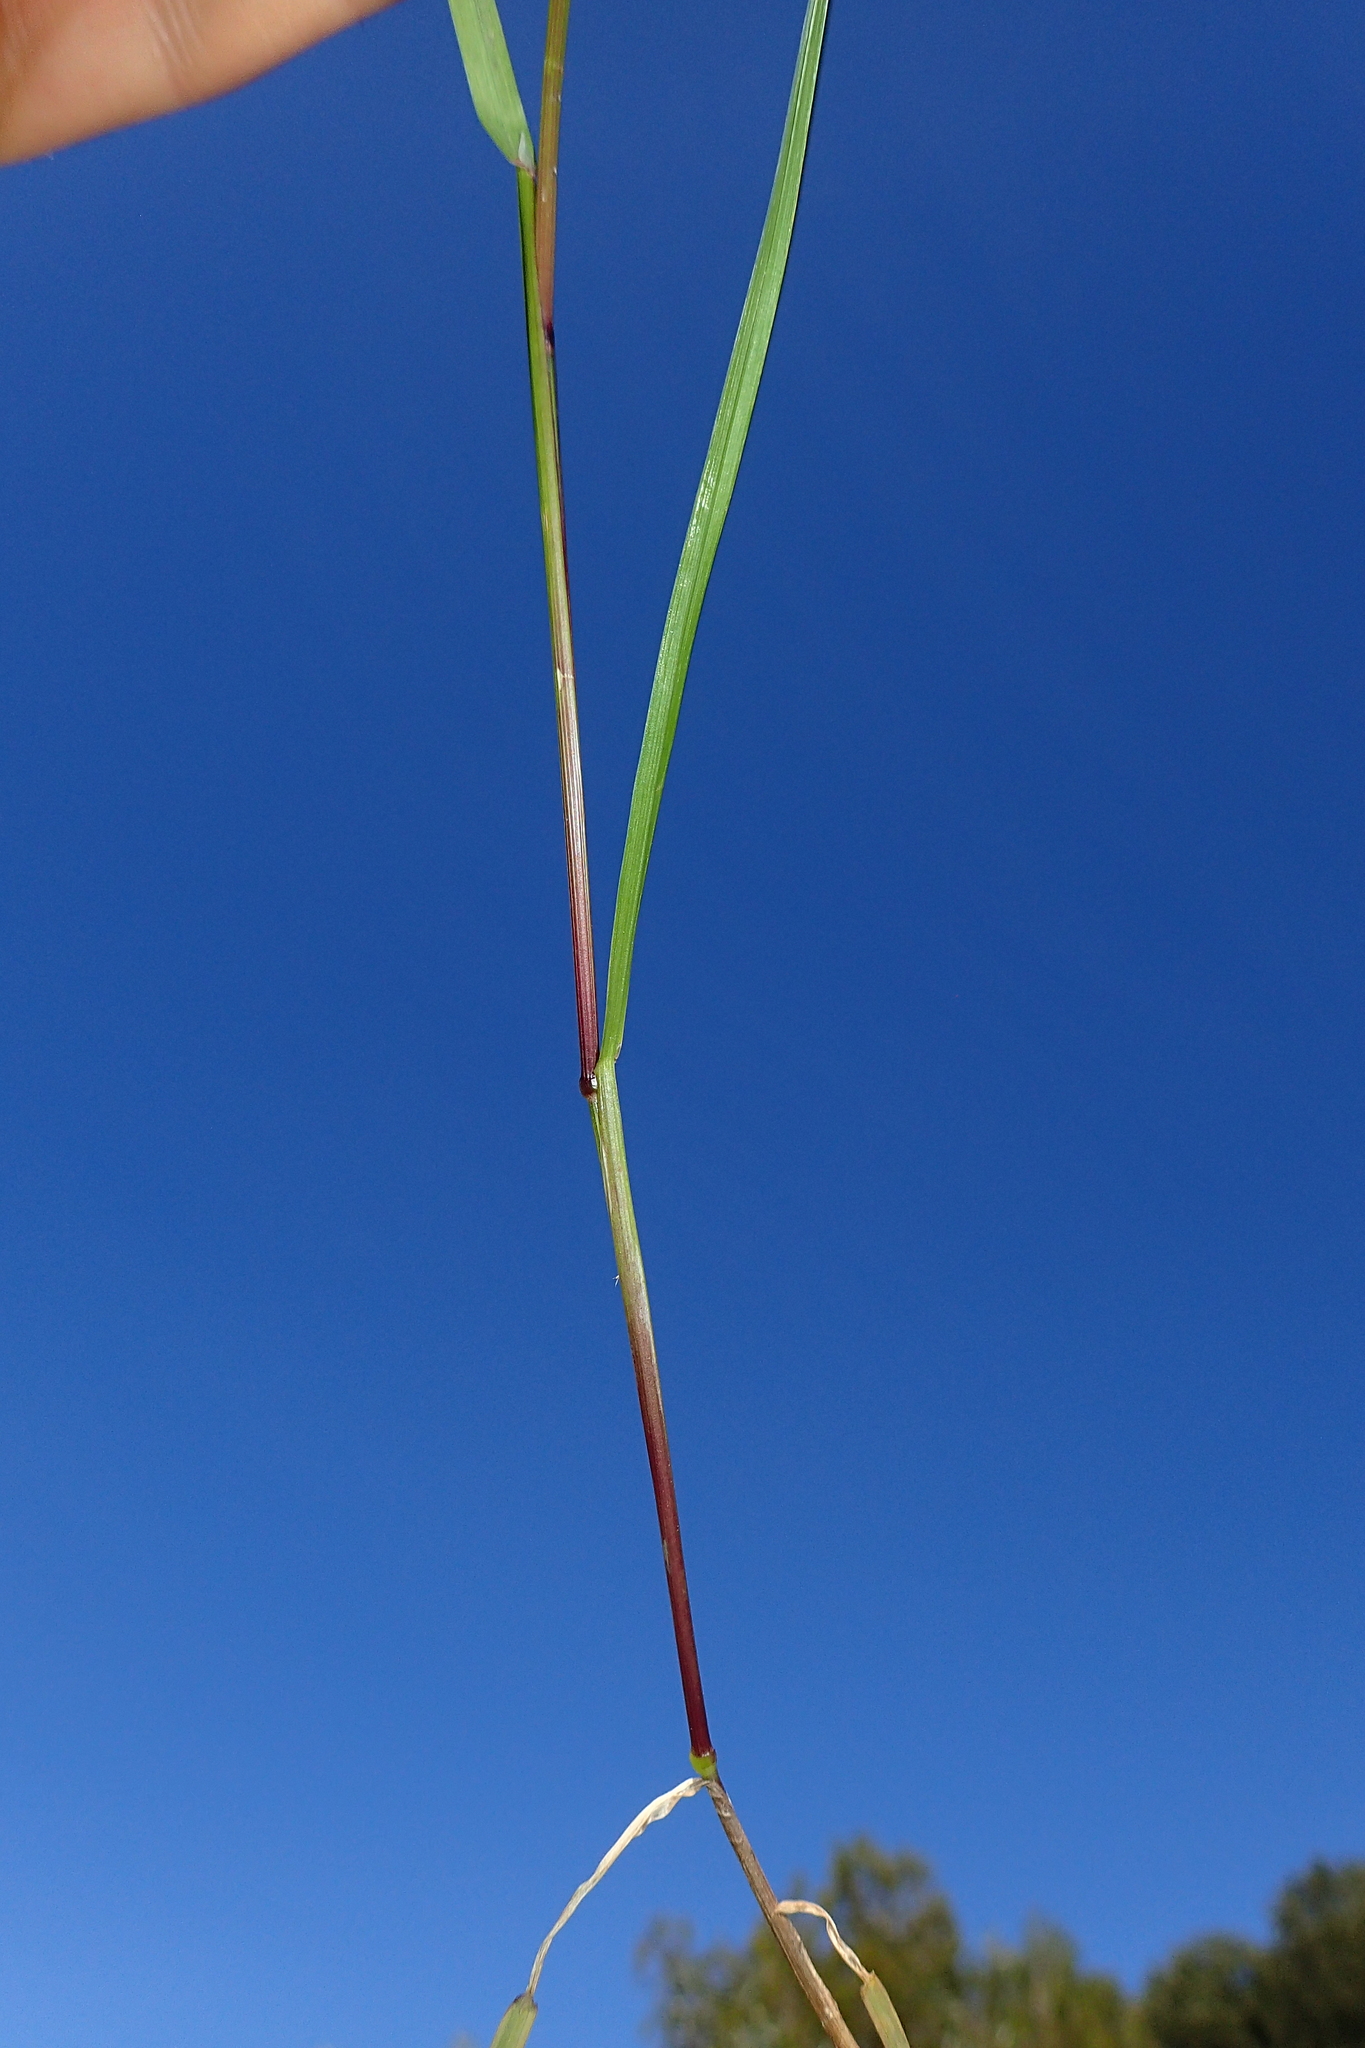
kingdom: Plantae
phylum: Tracheophyta
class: Liliopsida
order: Poales
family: Poaceae
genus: Poa
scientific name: Poa trivialis
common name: Rough bluegrass
